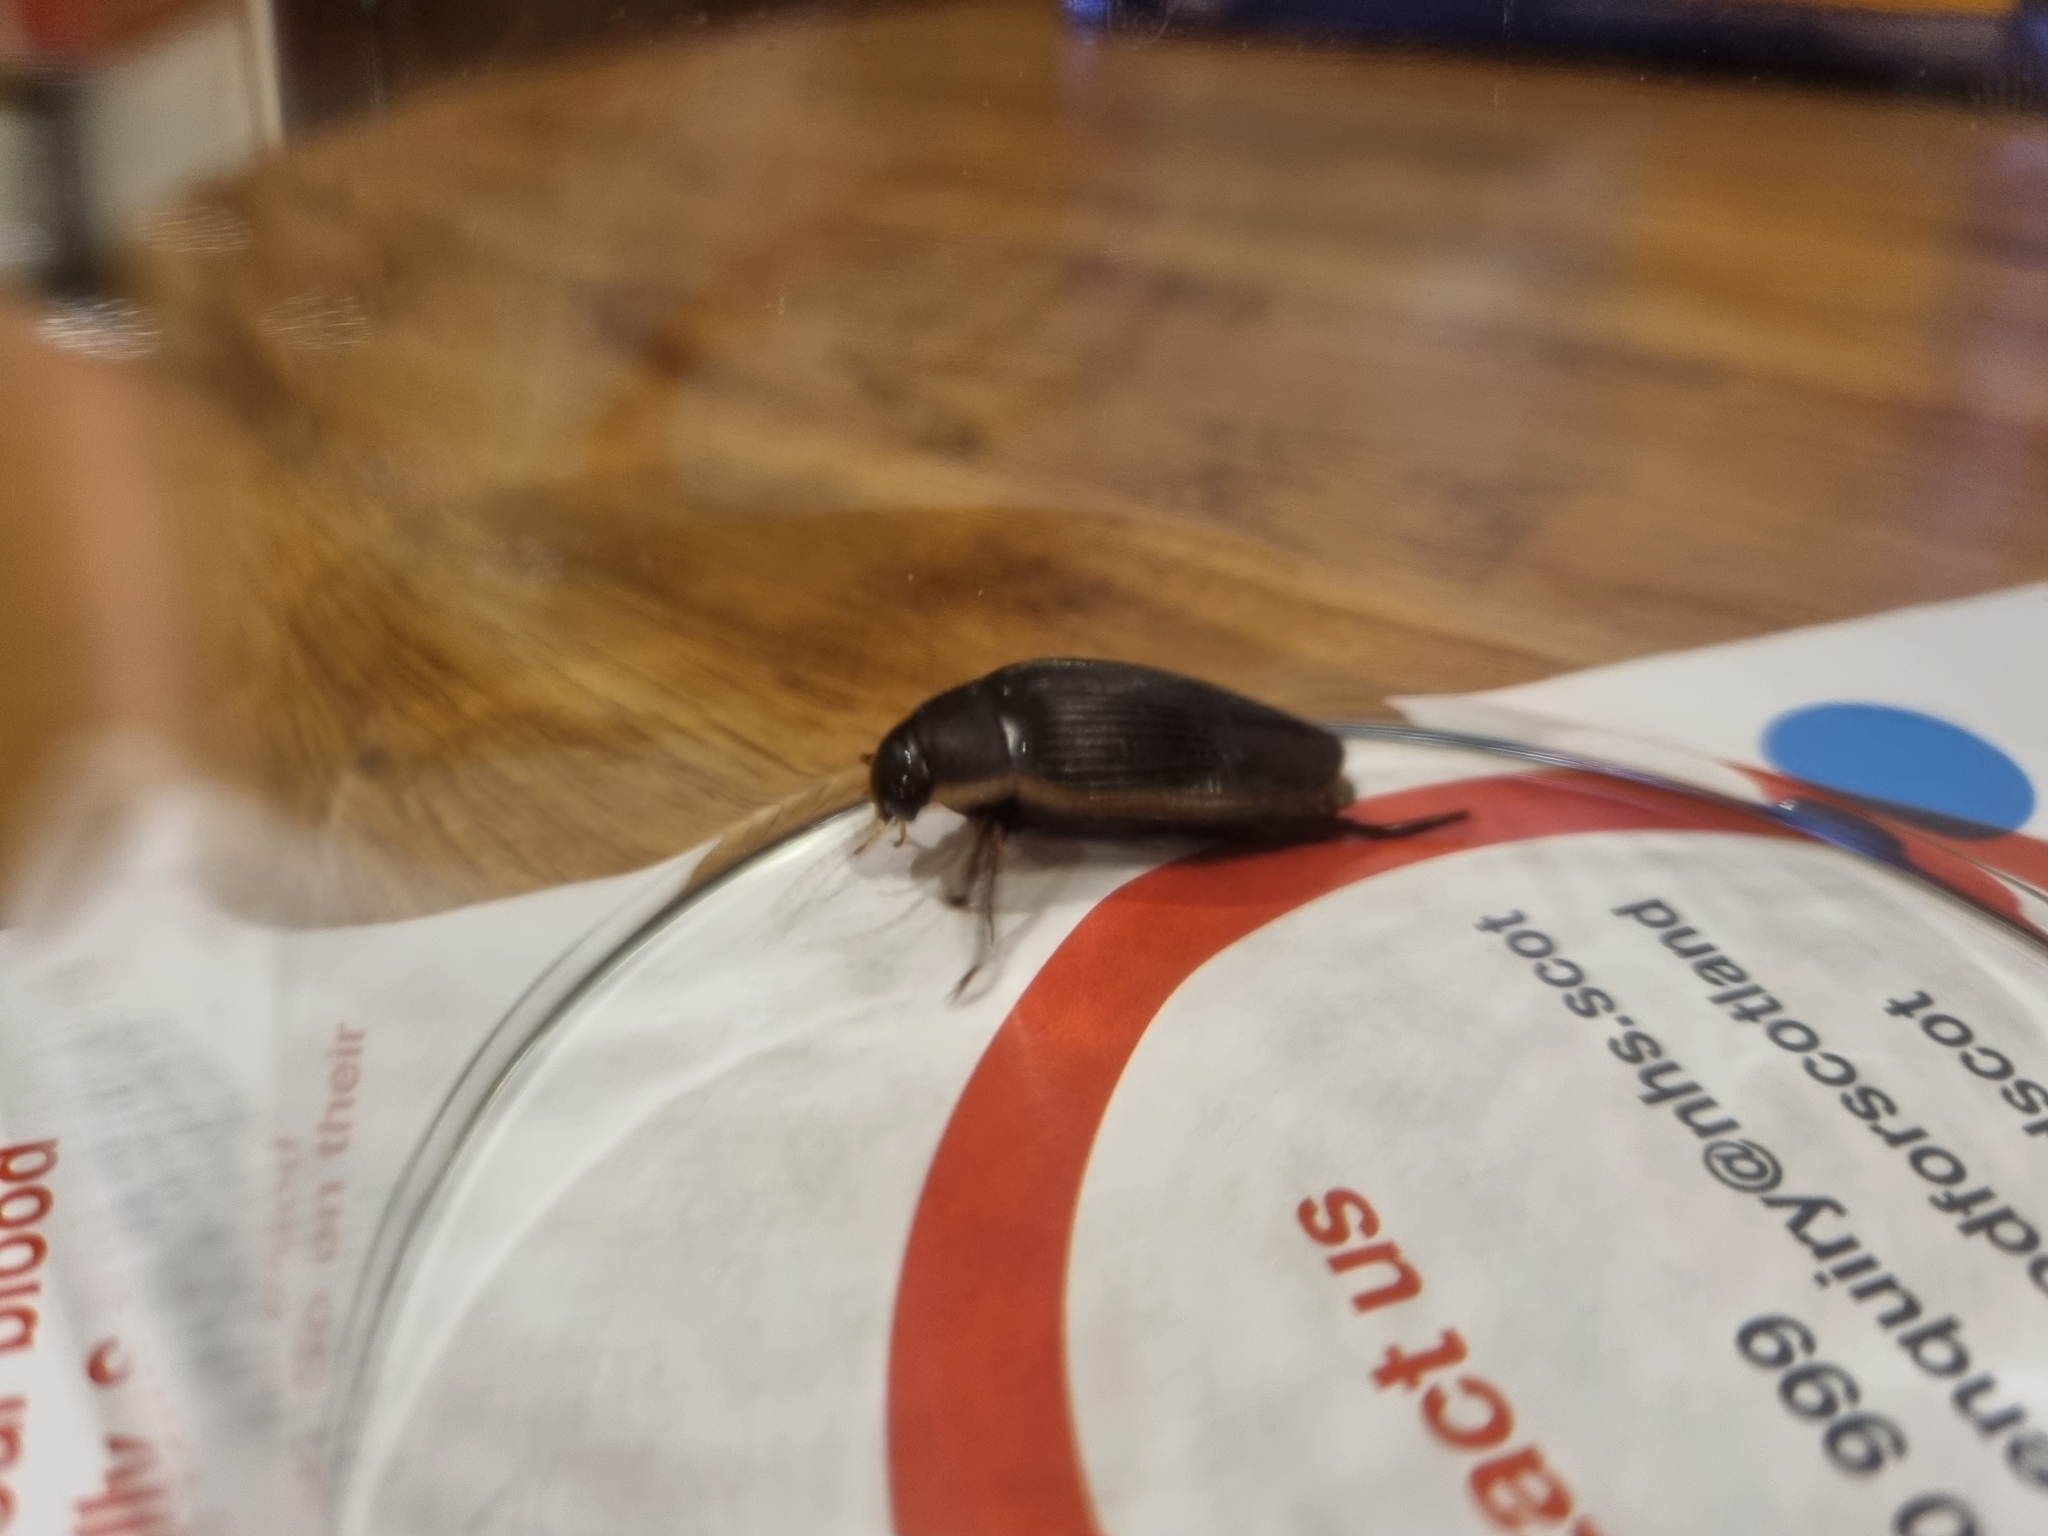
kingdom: Animalia
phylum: Arthropoda
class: Insecta
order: Coleoptera
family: Dytiscidae
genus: Dytiscus
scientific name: Dytiscus semisulcatus
